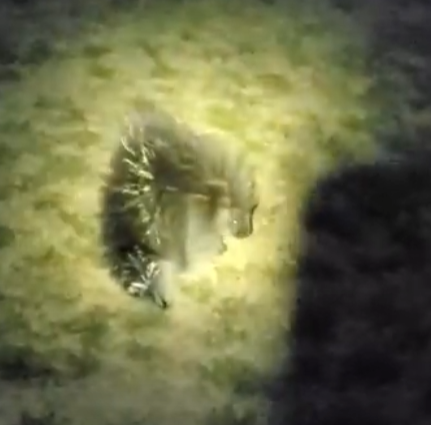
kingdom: Animalia
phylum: Chordata
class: Mammalia
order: Rodentia
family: Erethizontidae
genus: Erethizon
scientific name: Erethizon dorsatus
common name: North american porcupine
